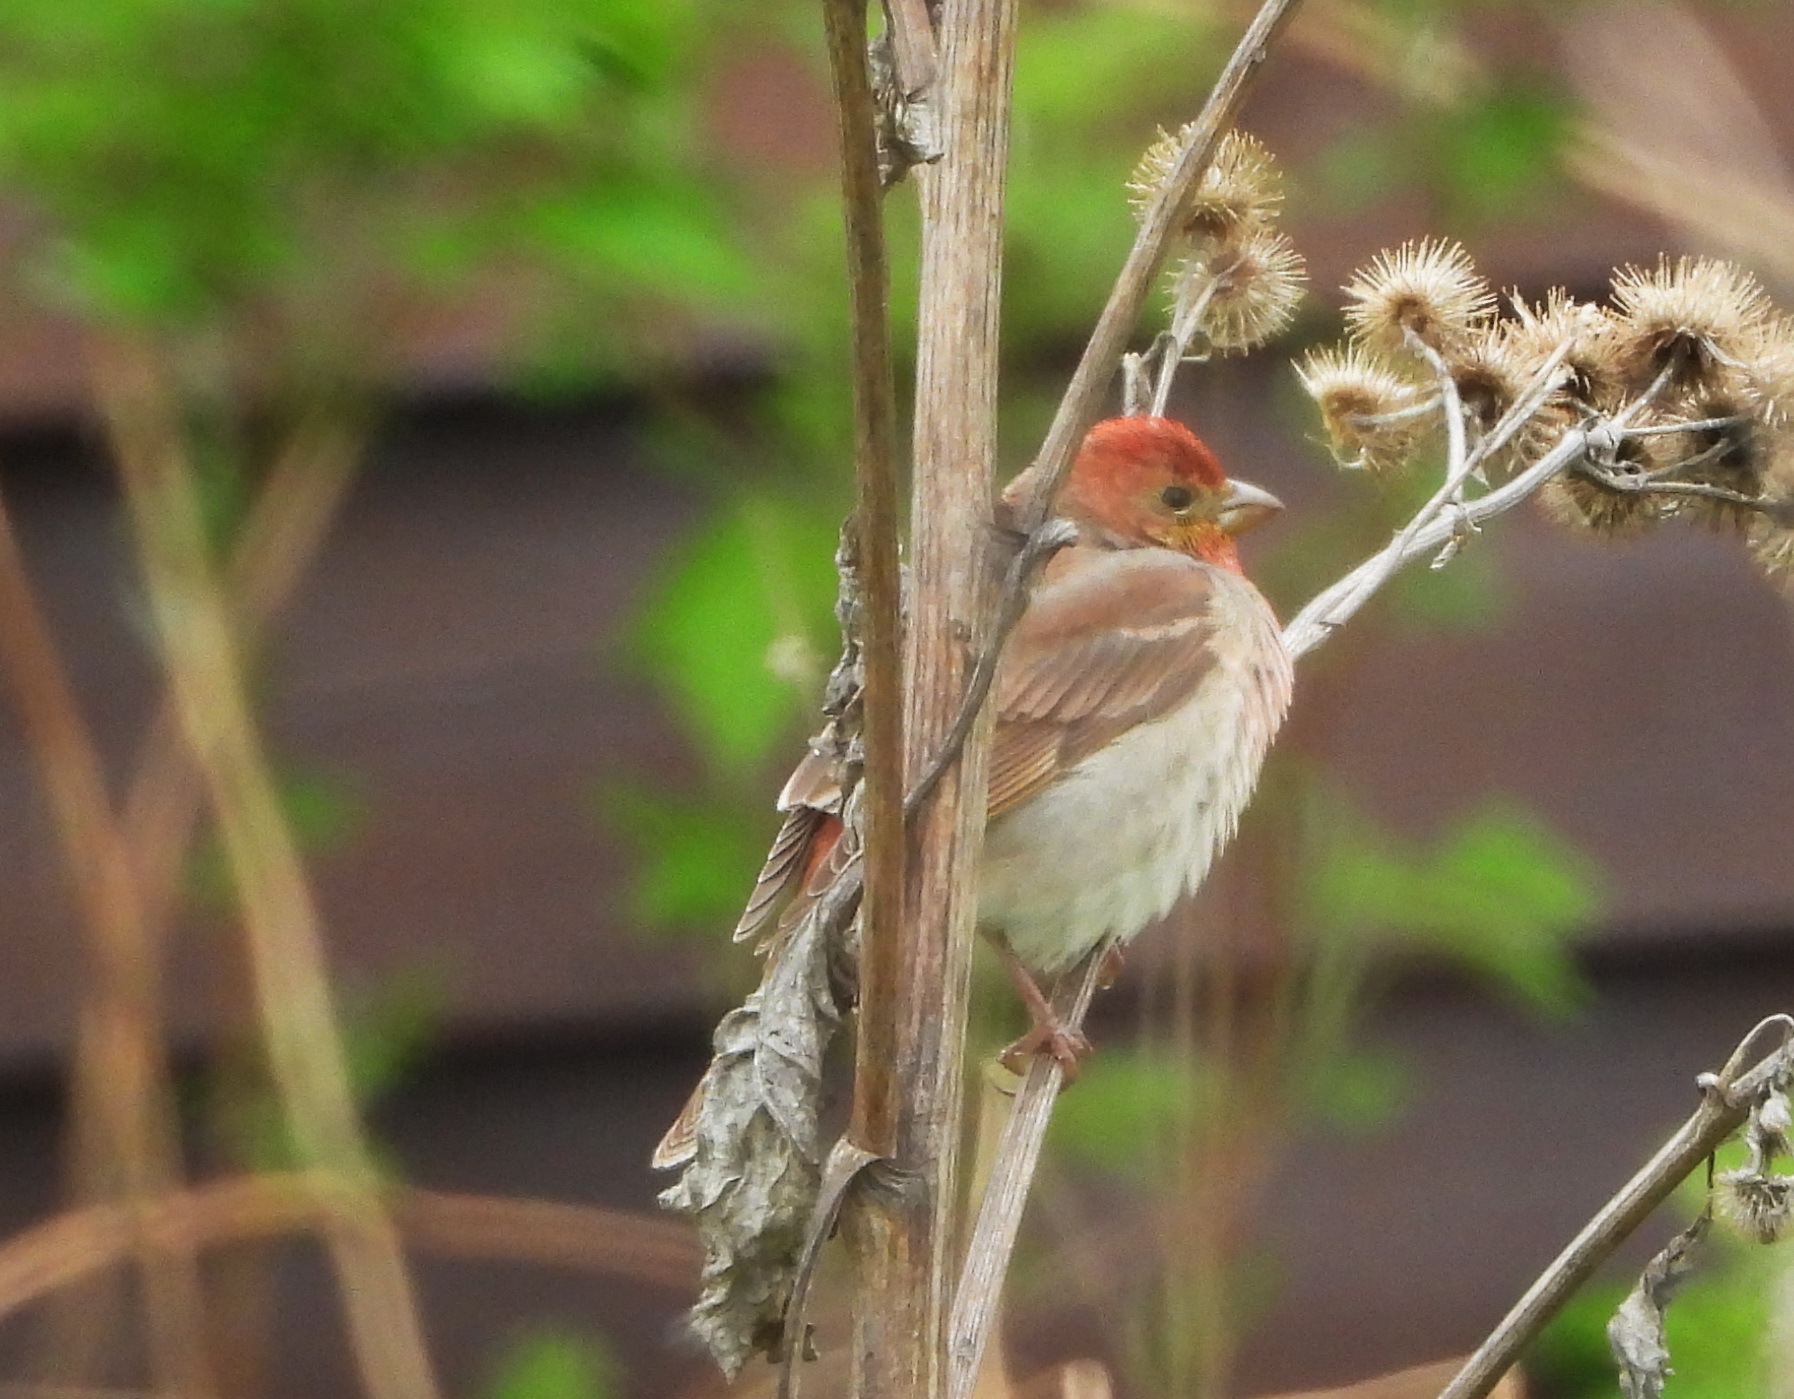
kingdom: Animalia
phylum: Chordata
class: Aves
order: Passeriformes
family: Fringillidae
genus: Carpodacus
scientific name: Carpodacus erythrinus
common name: Common rosefinch
